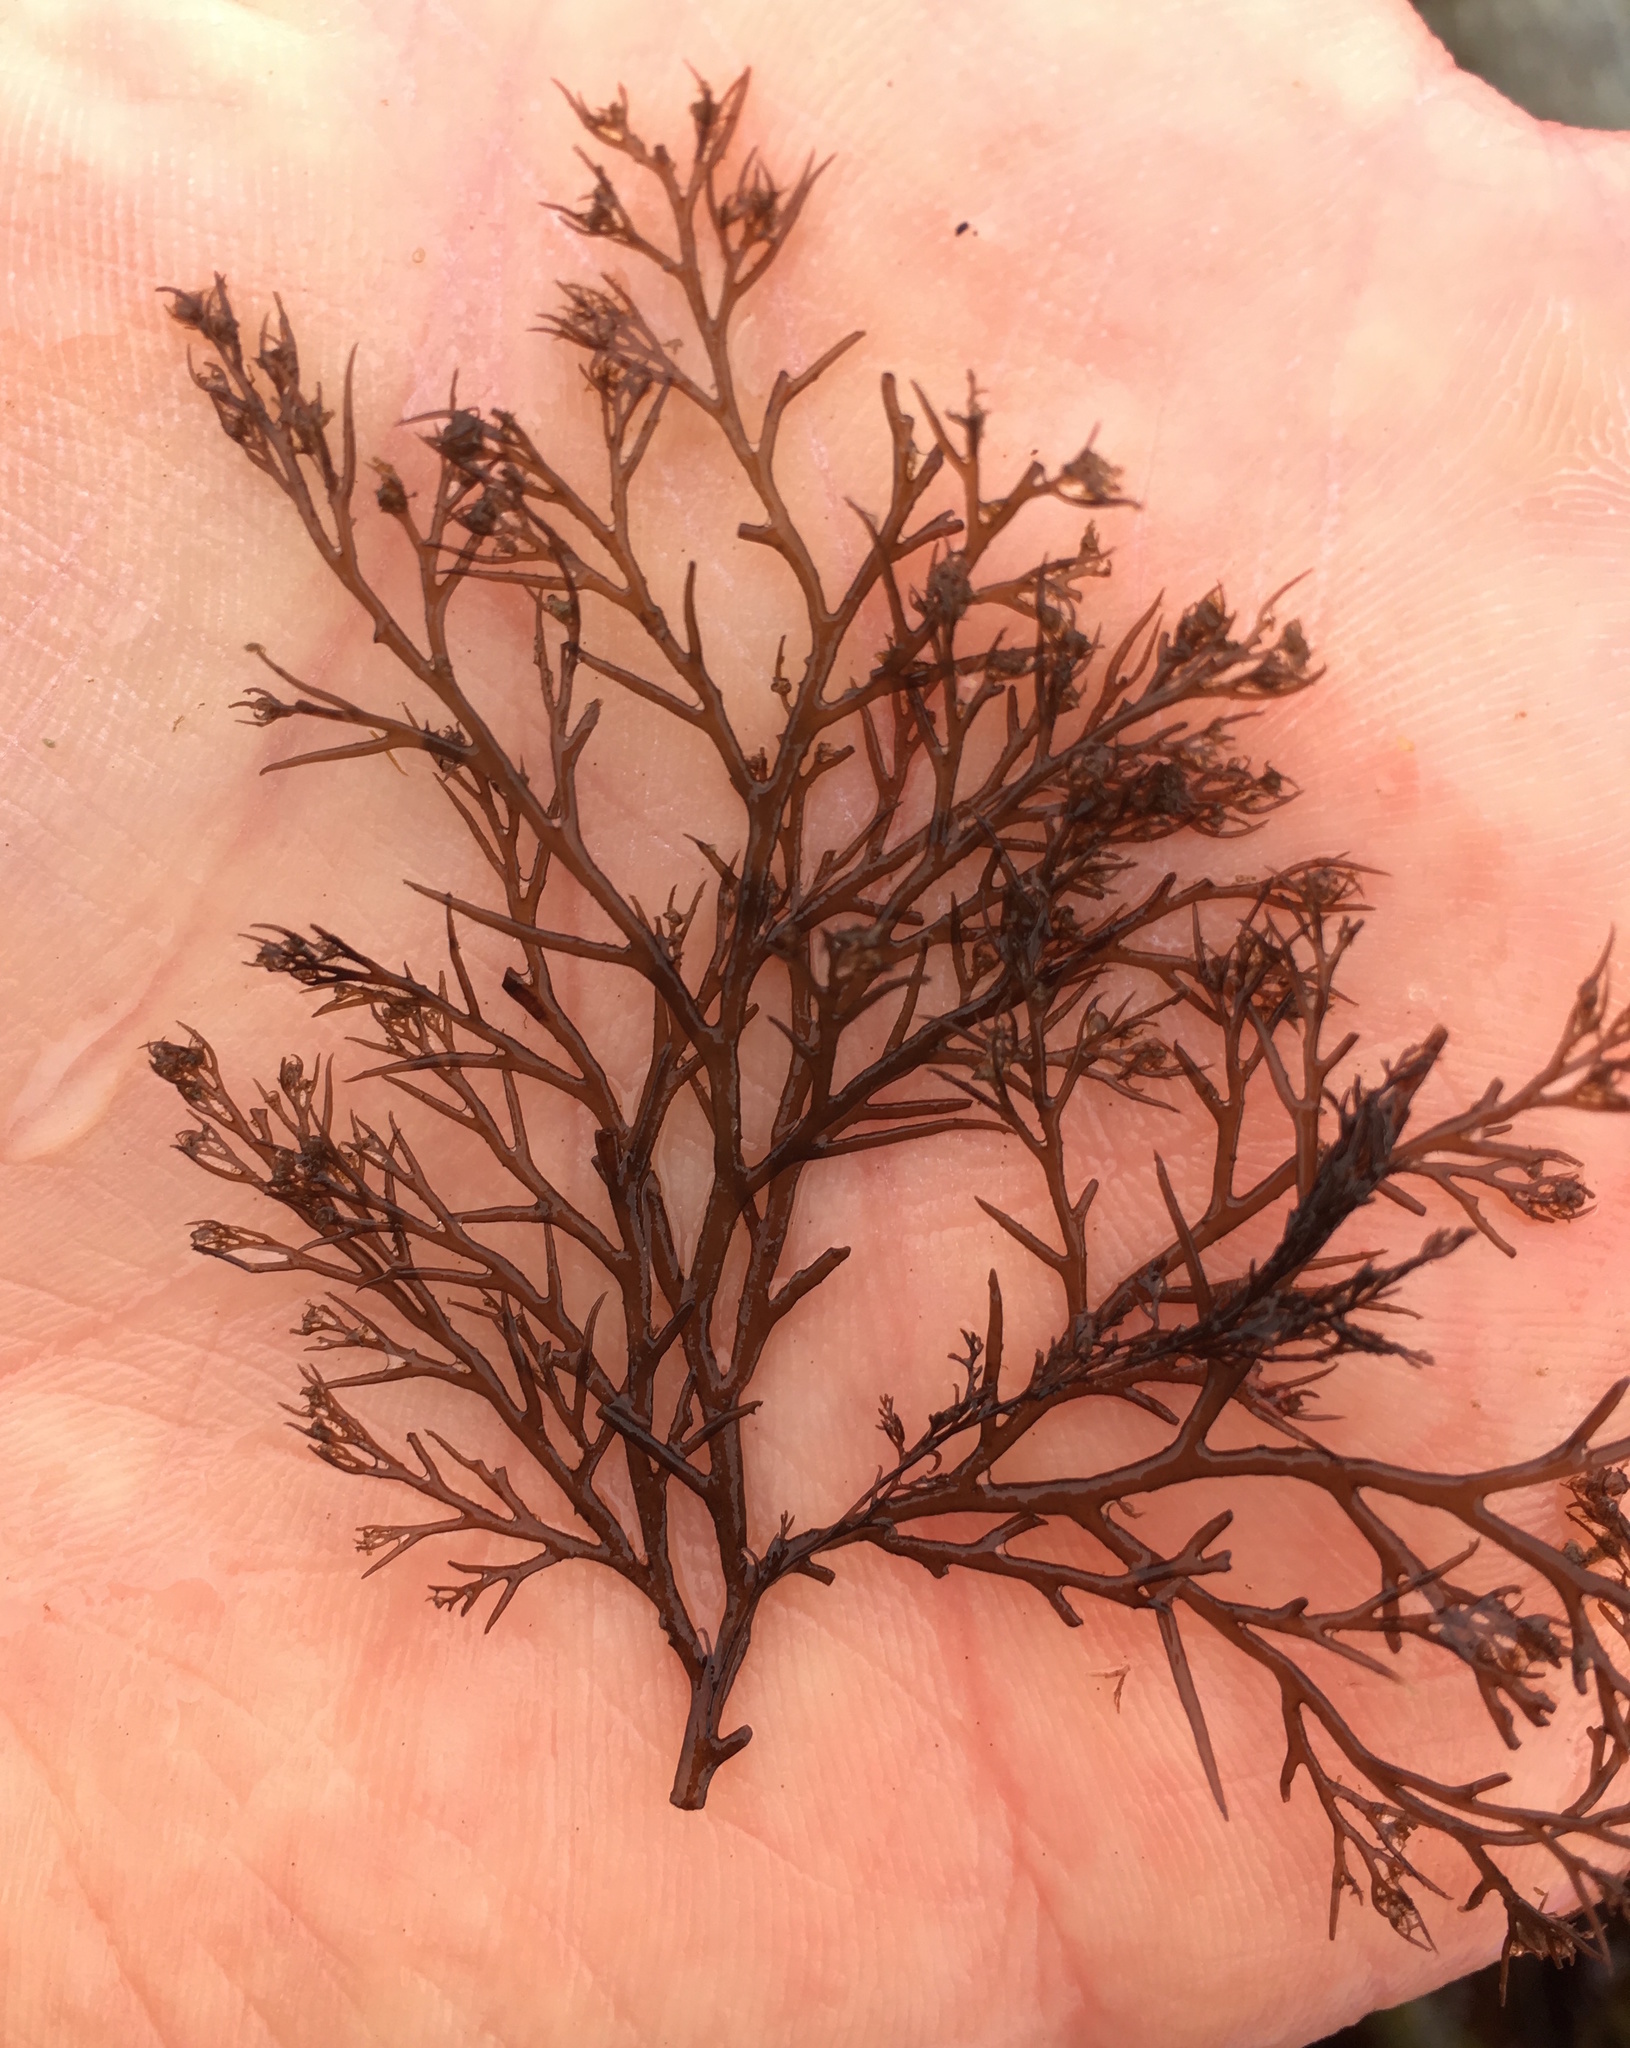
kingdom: Plantae
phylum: Rhodophyta
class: Florideophyceae
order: Ceramiales
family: Rhodomelaceae
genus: Odonthalia
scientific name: Odonthalia floccosa
